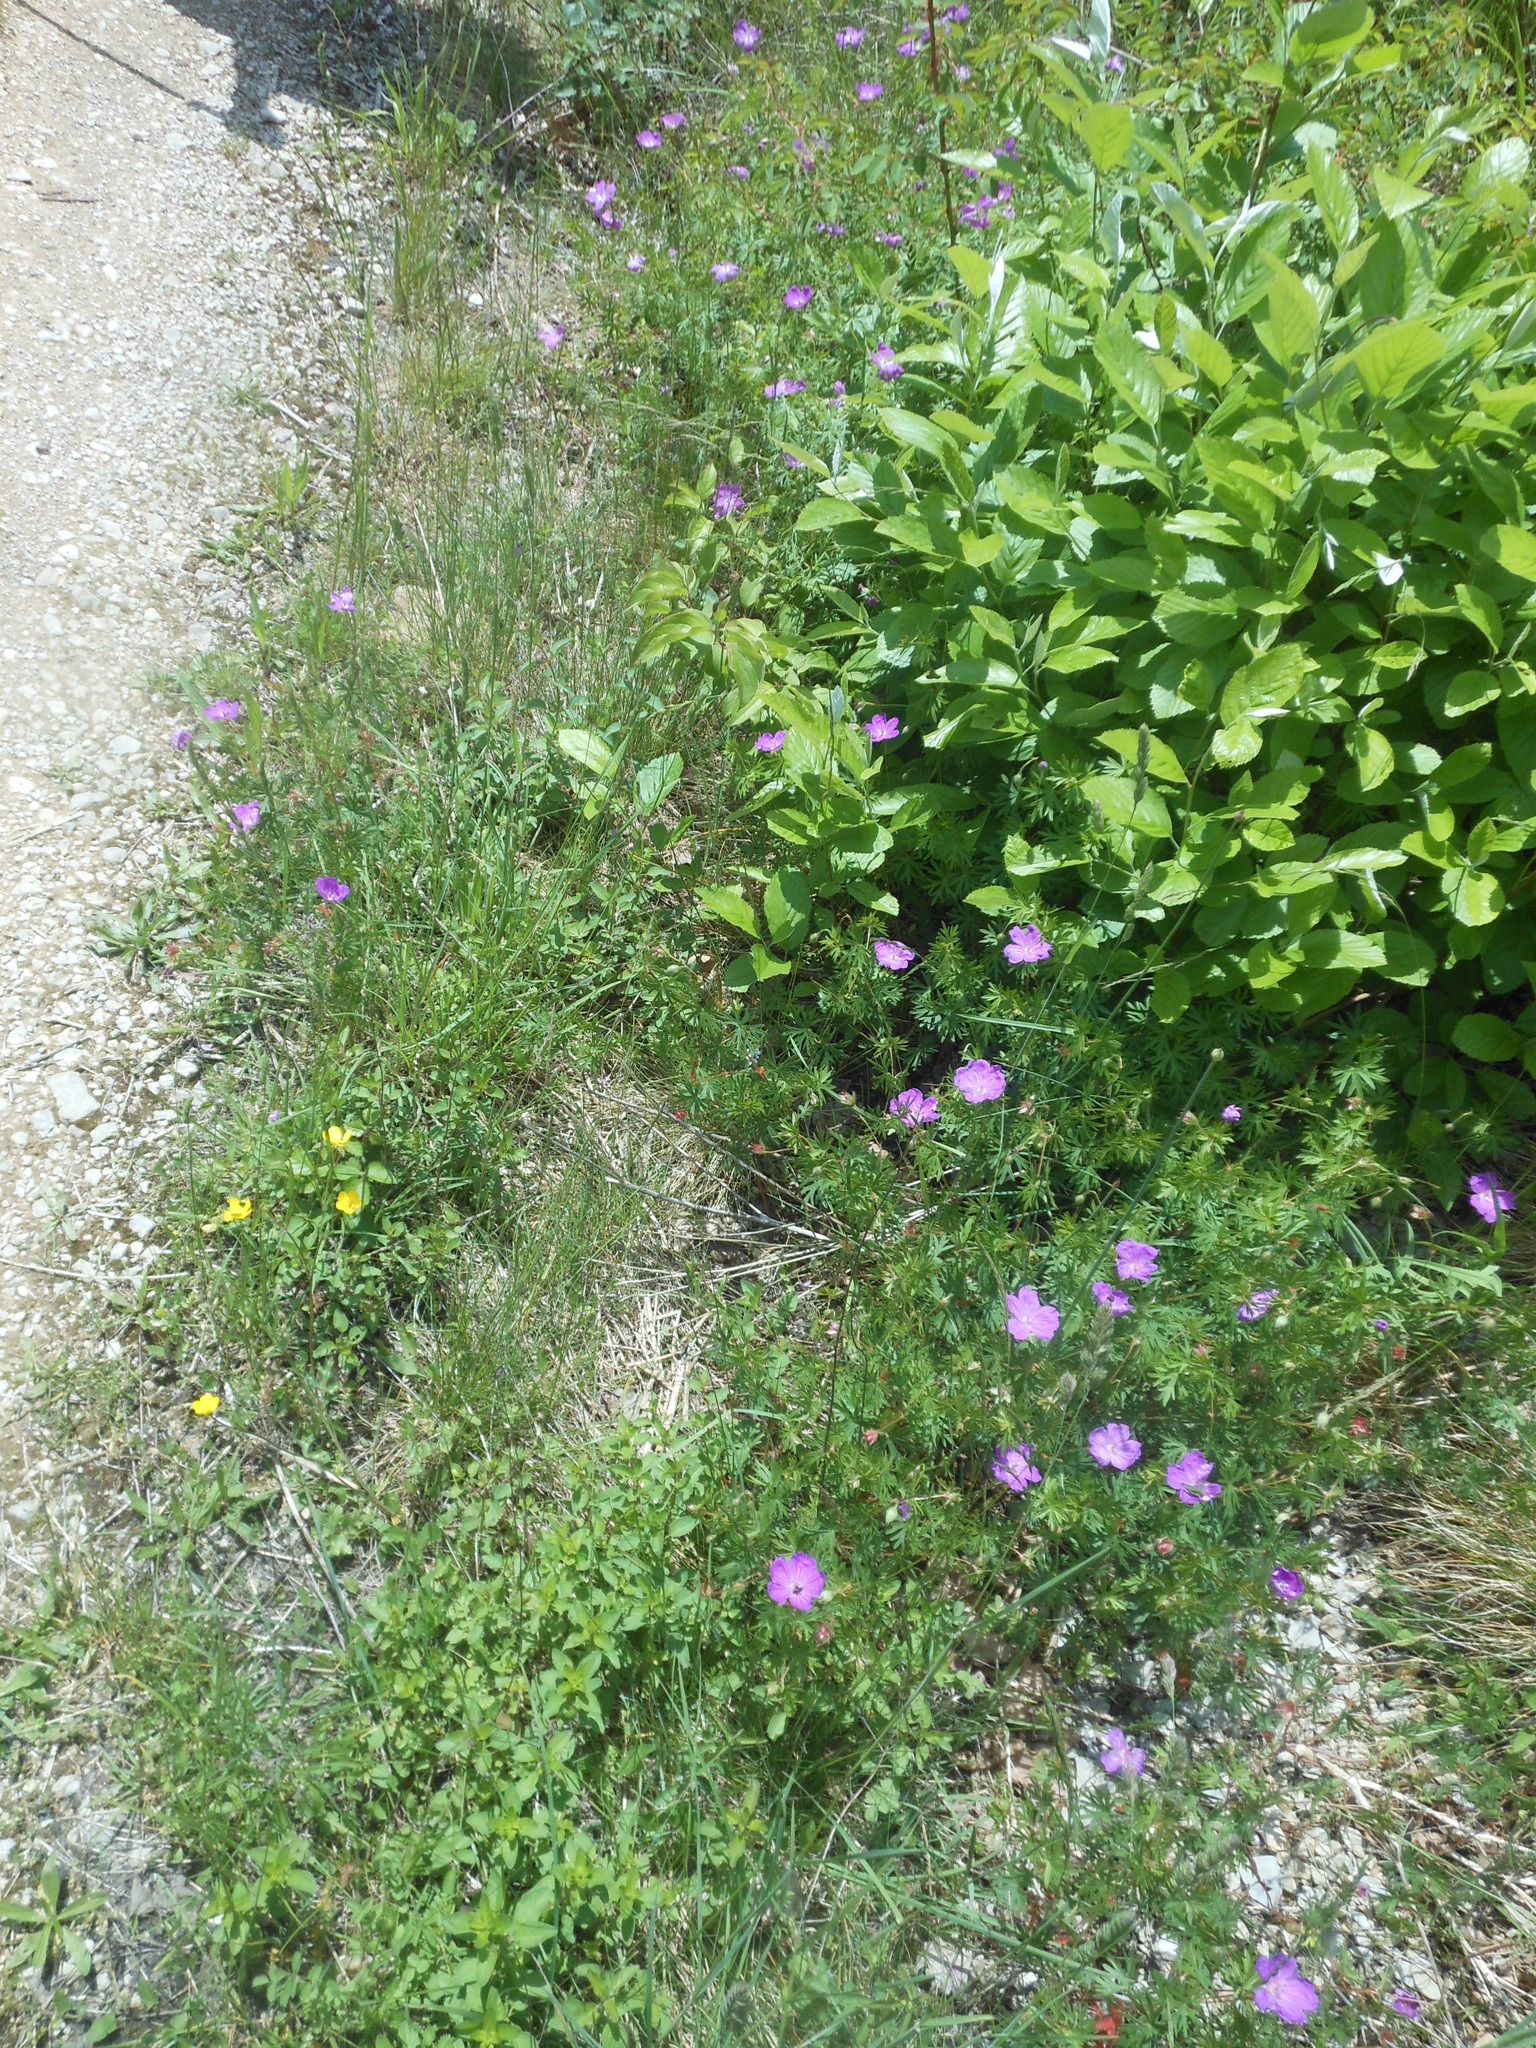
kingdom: Plantae
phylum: Tracheophyta
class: Magnoliopsida
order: Geraniales
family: Geraniaceae
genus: Geranium
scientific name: Geranium sanguineum
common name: Bloody crane's-bill
